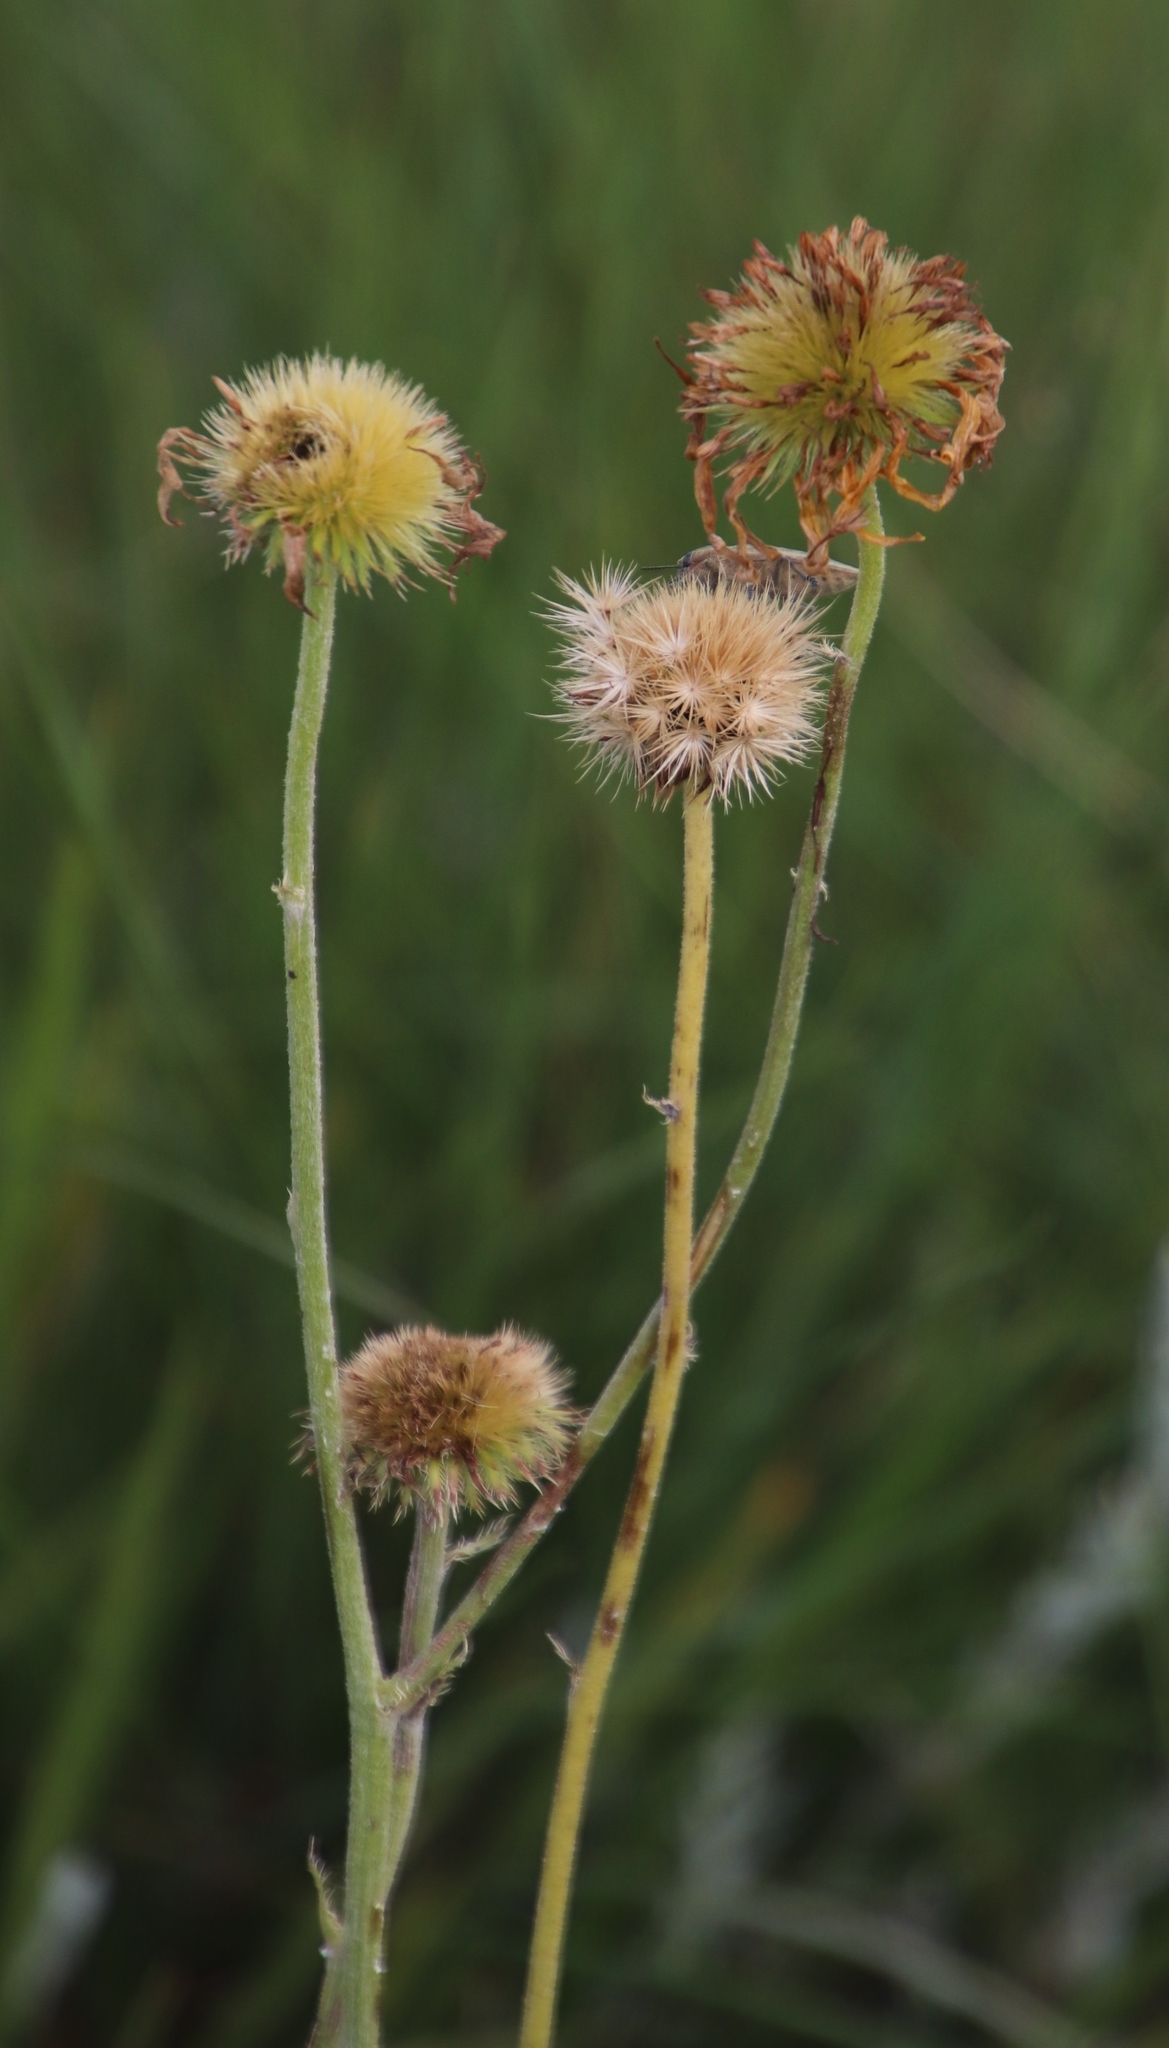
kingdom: Plantae
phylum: Tracheophyta
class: Magnoliopsida
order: Asterales
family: Asteraceae
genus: Berkheya
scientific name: Berkheya setifera
